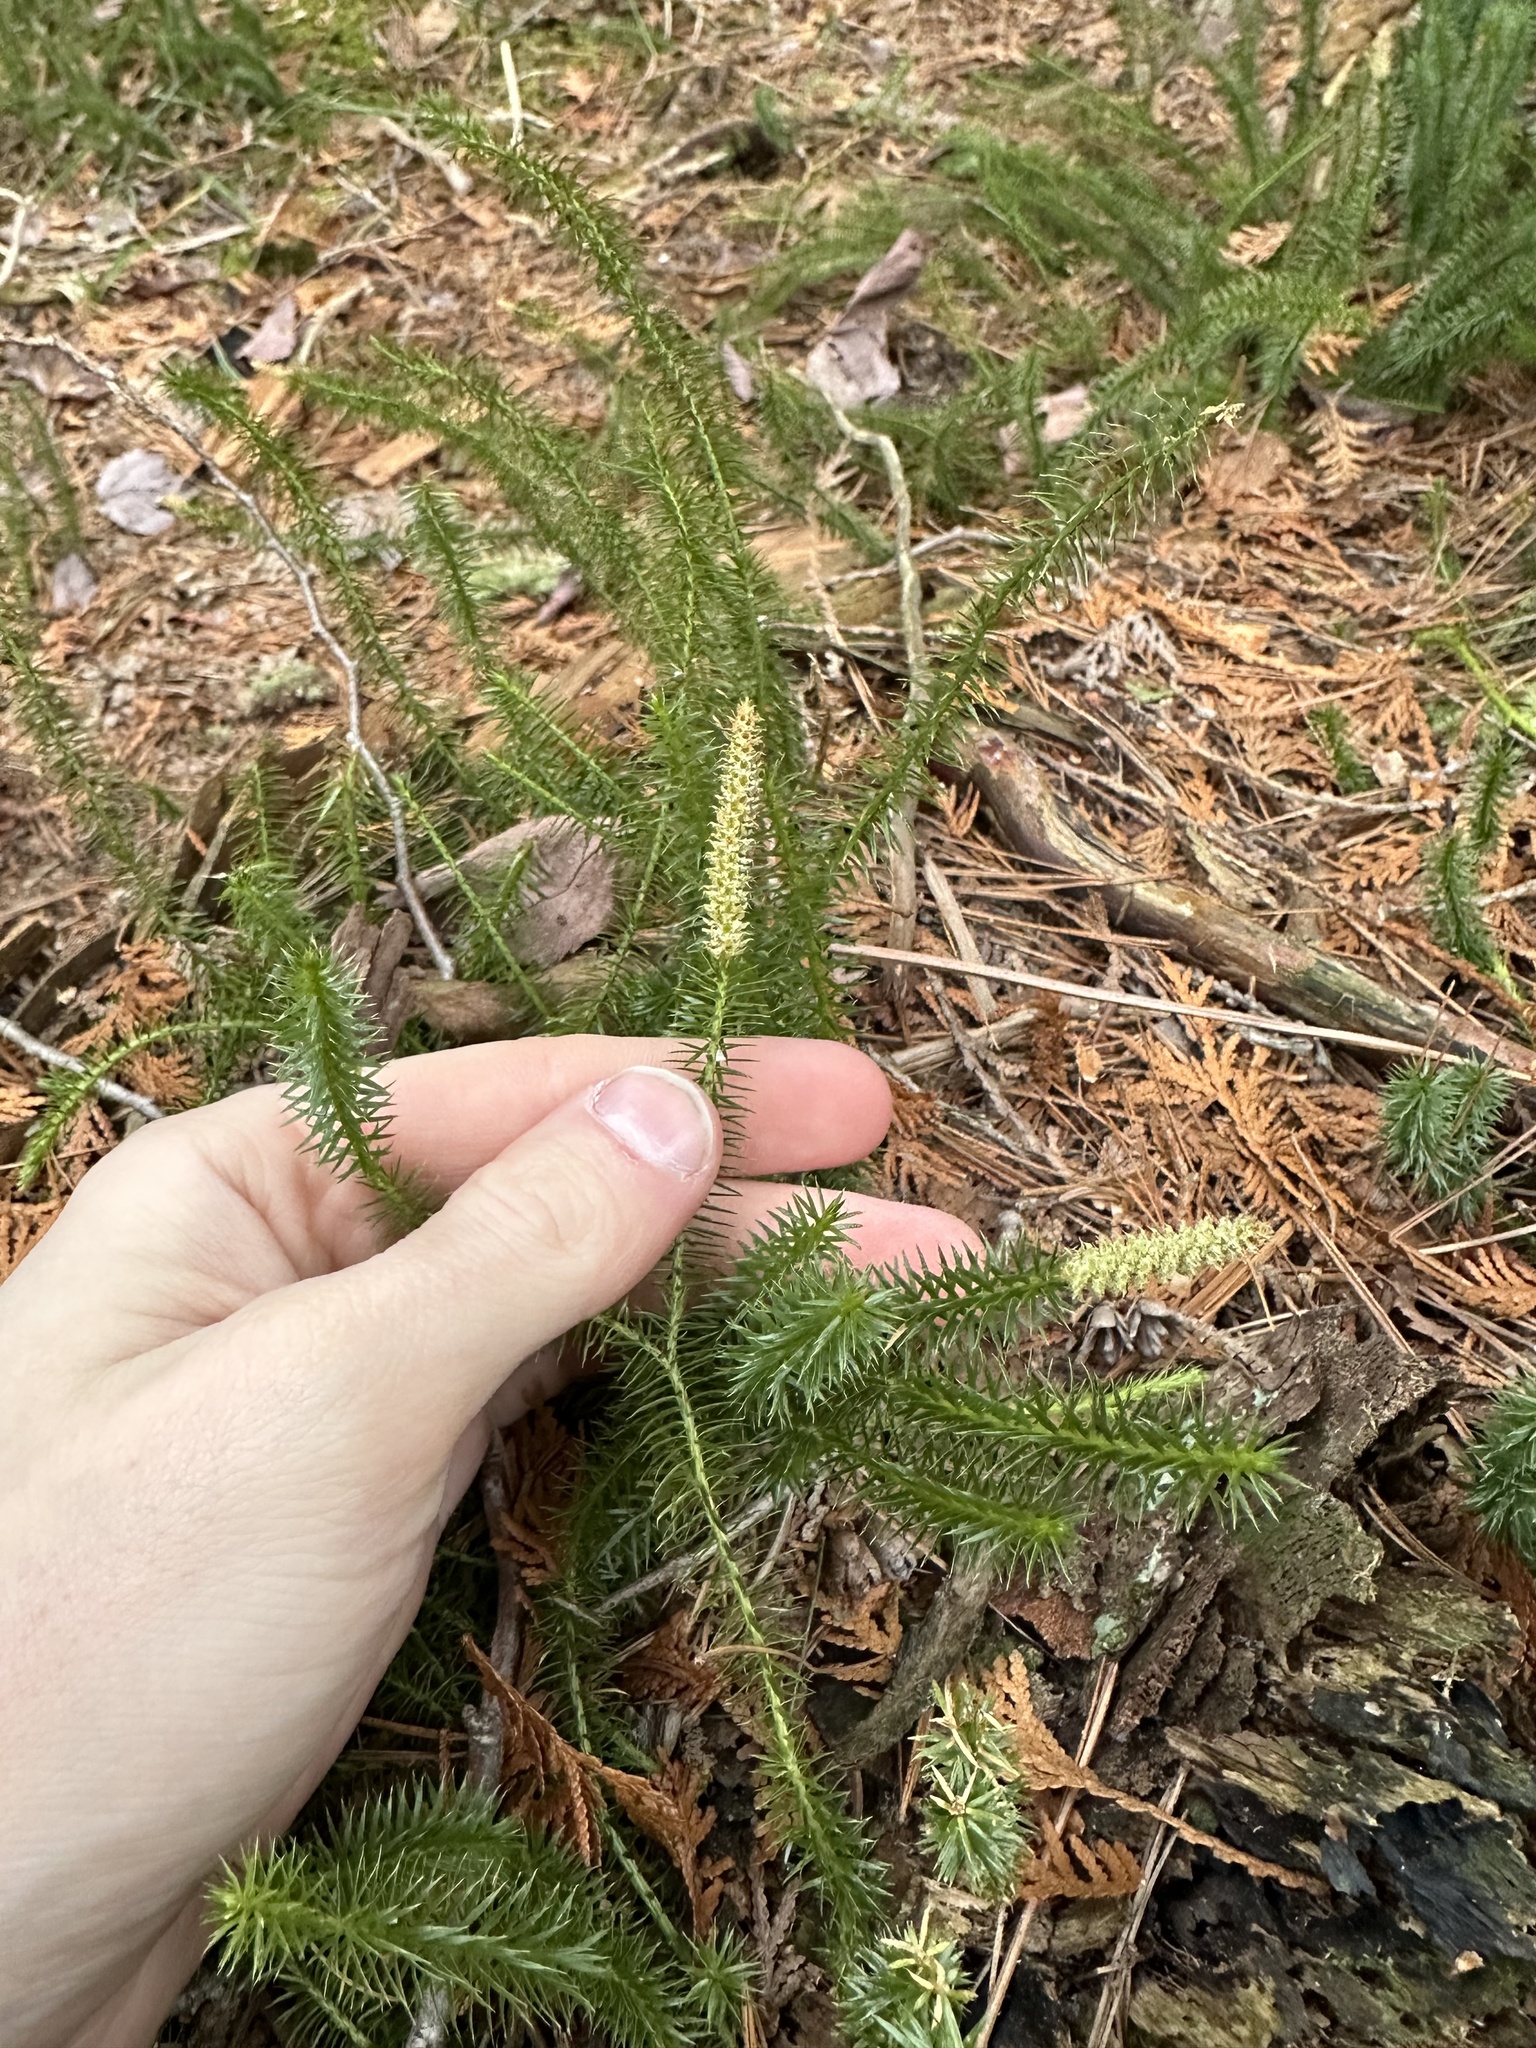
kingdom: Plantae
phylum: Tracheophyta
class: Lycopodiopsida
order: Lycopodiales
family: Lycopodiaceae
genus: Spinulum
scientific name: Spinulum annotinum
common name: Interrupted club-moss
